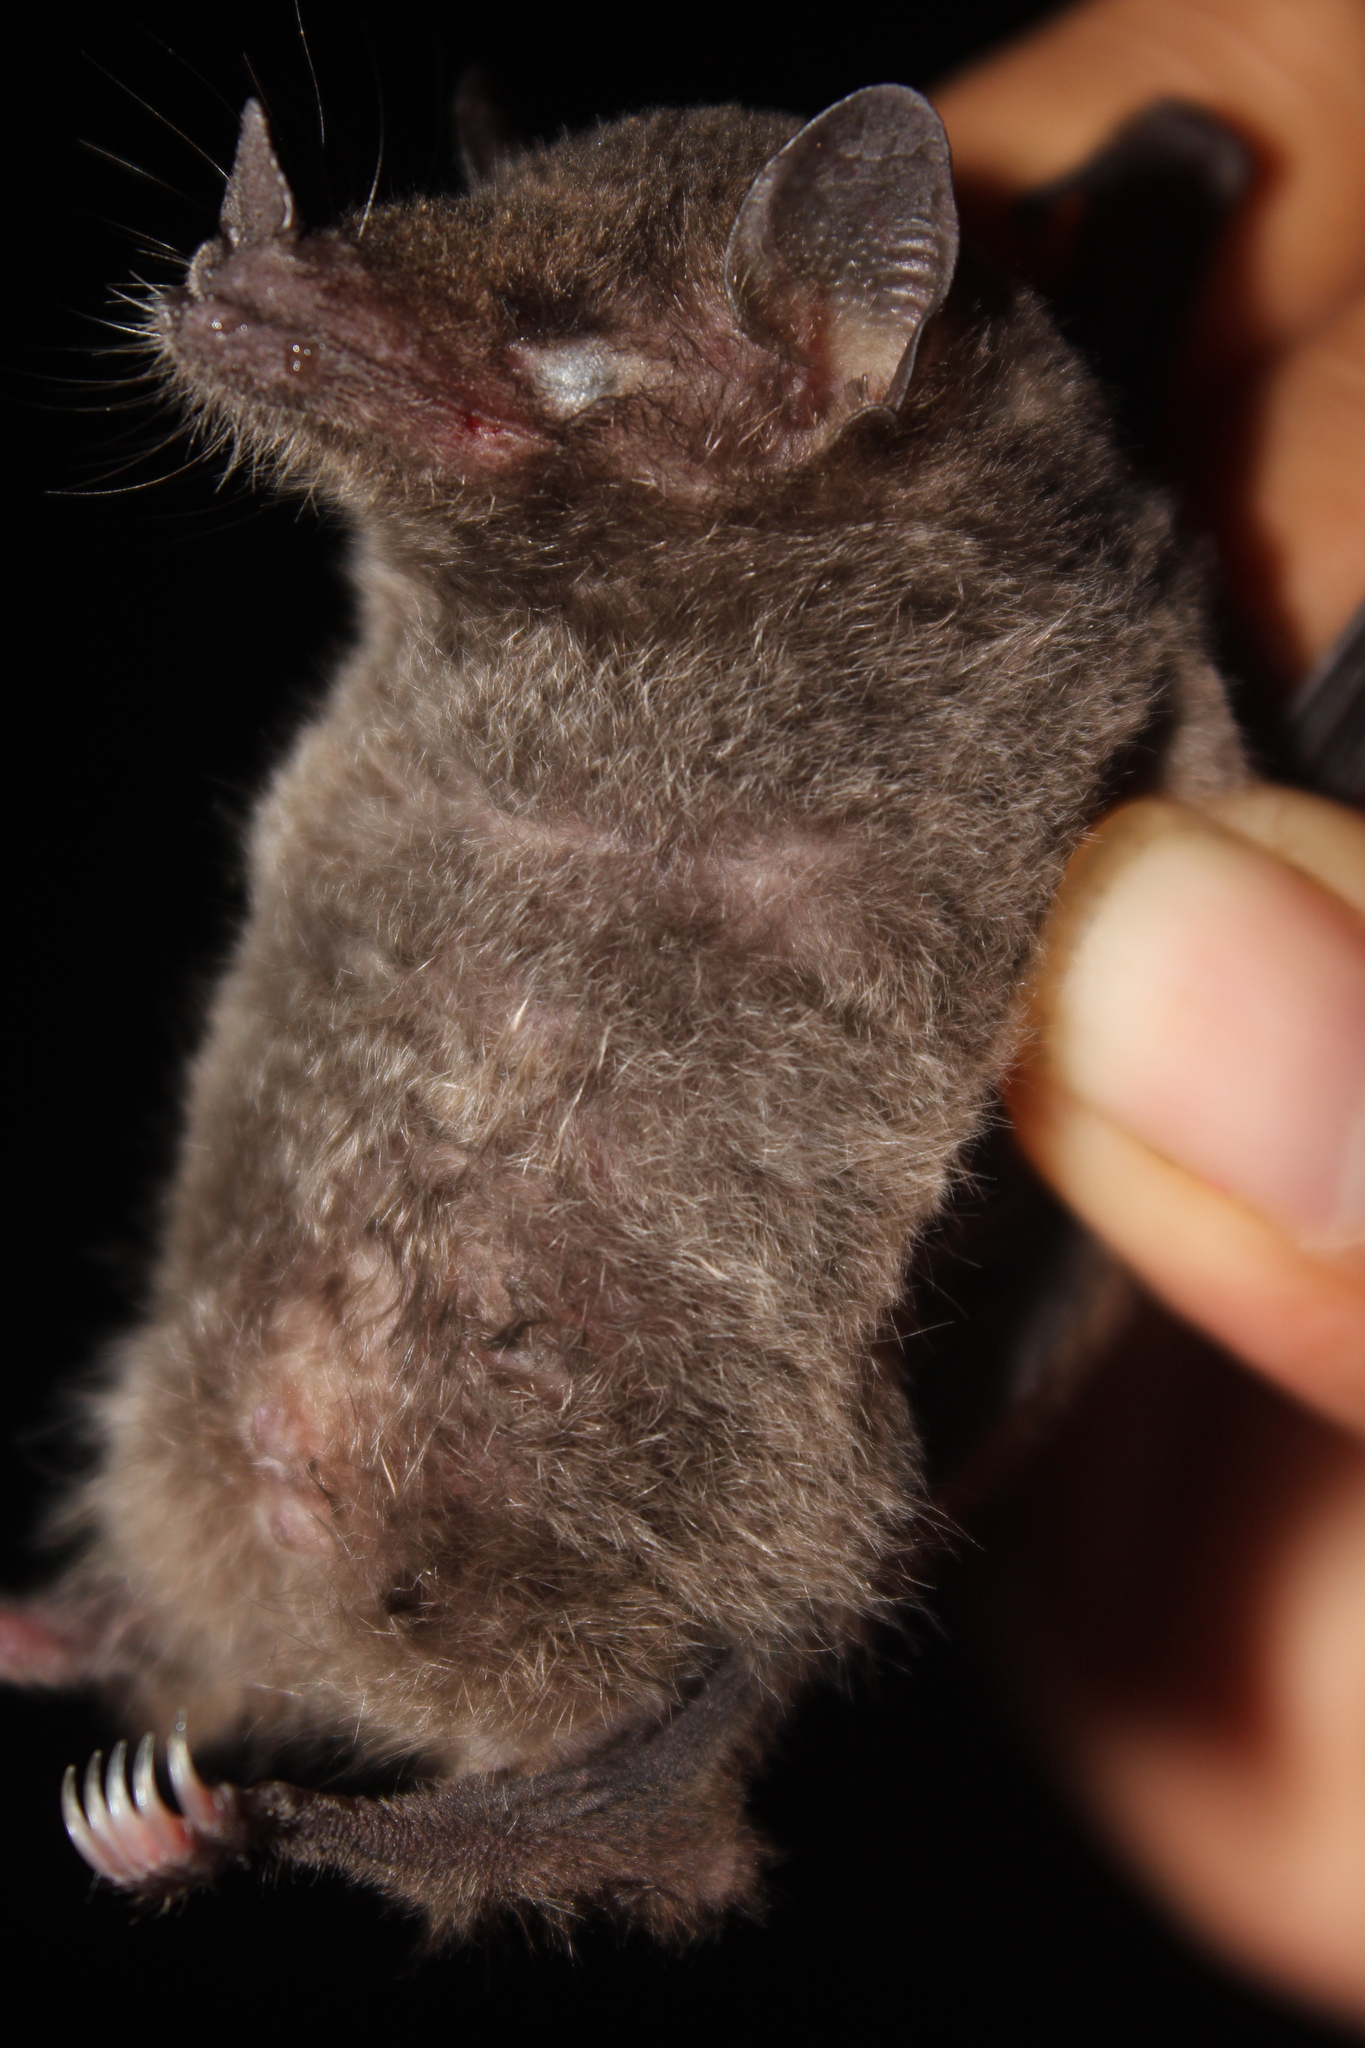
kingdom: Animalia
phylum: Chordata
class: Mammalia
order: Chiroptera
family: Phyllostomidae
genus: Anoura
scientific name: Anoura geoffroyi
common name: Geoffroy's tailless bat
